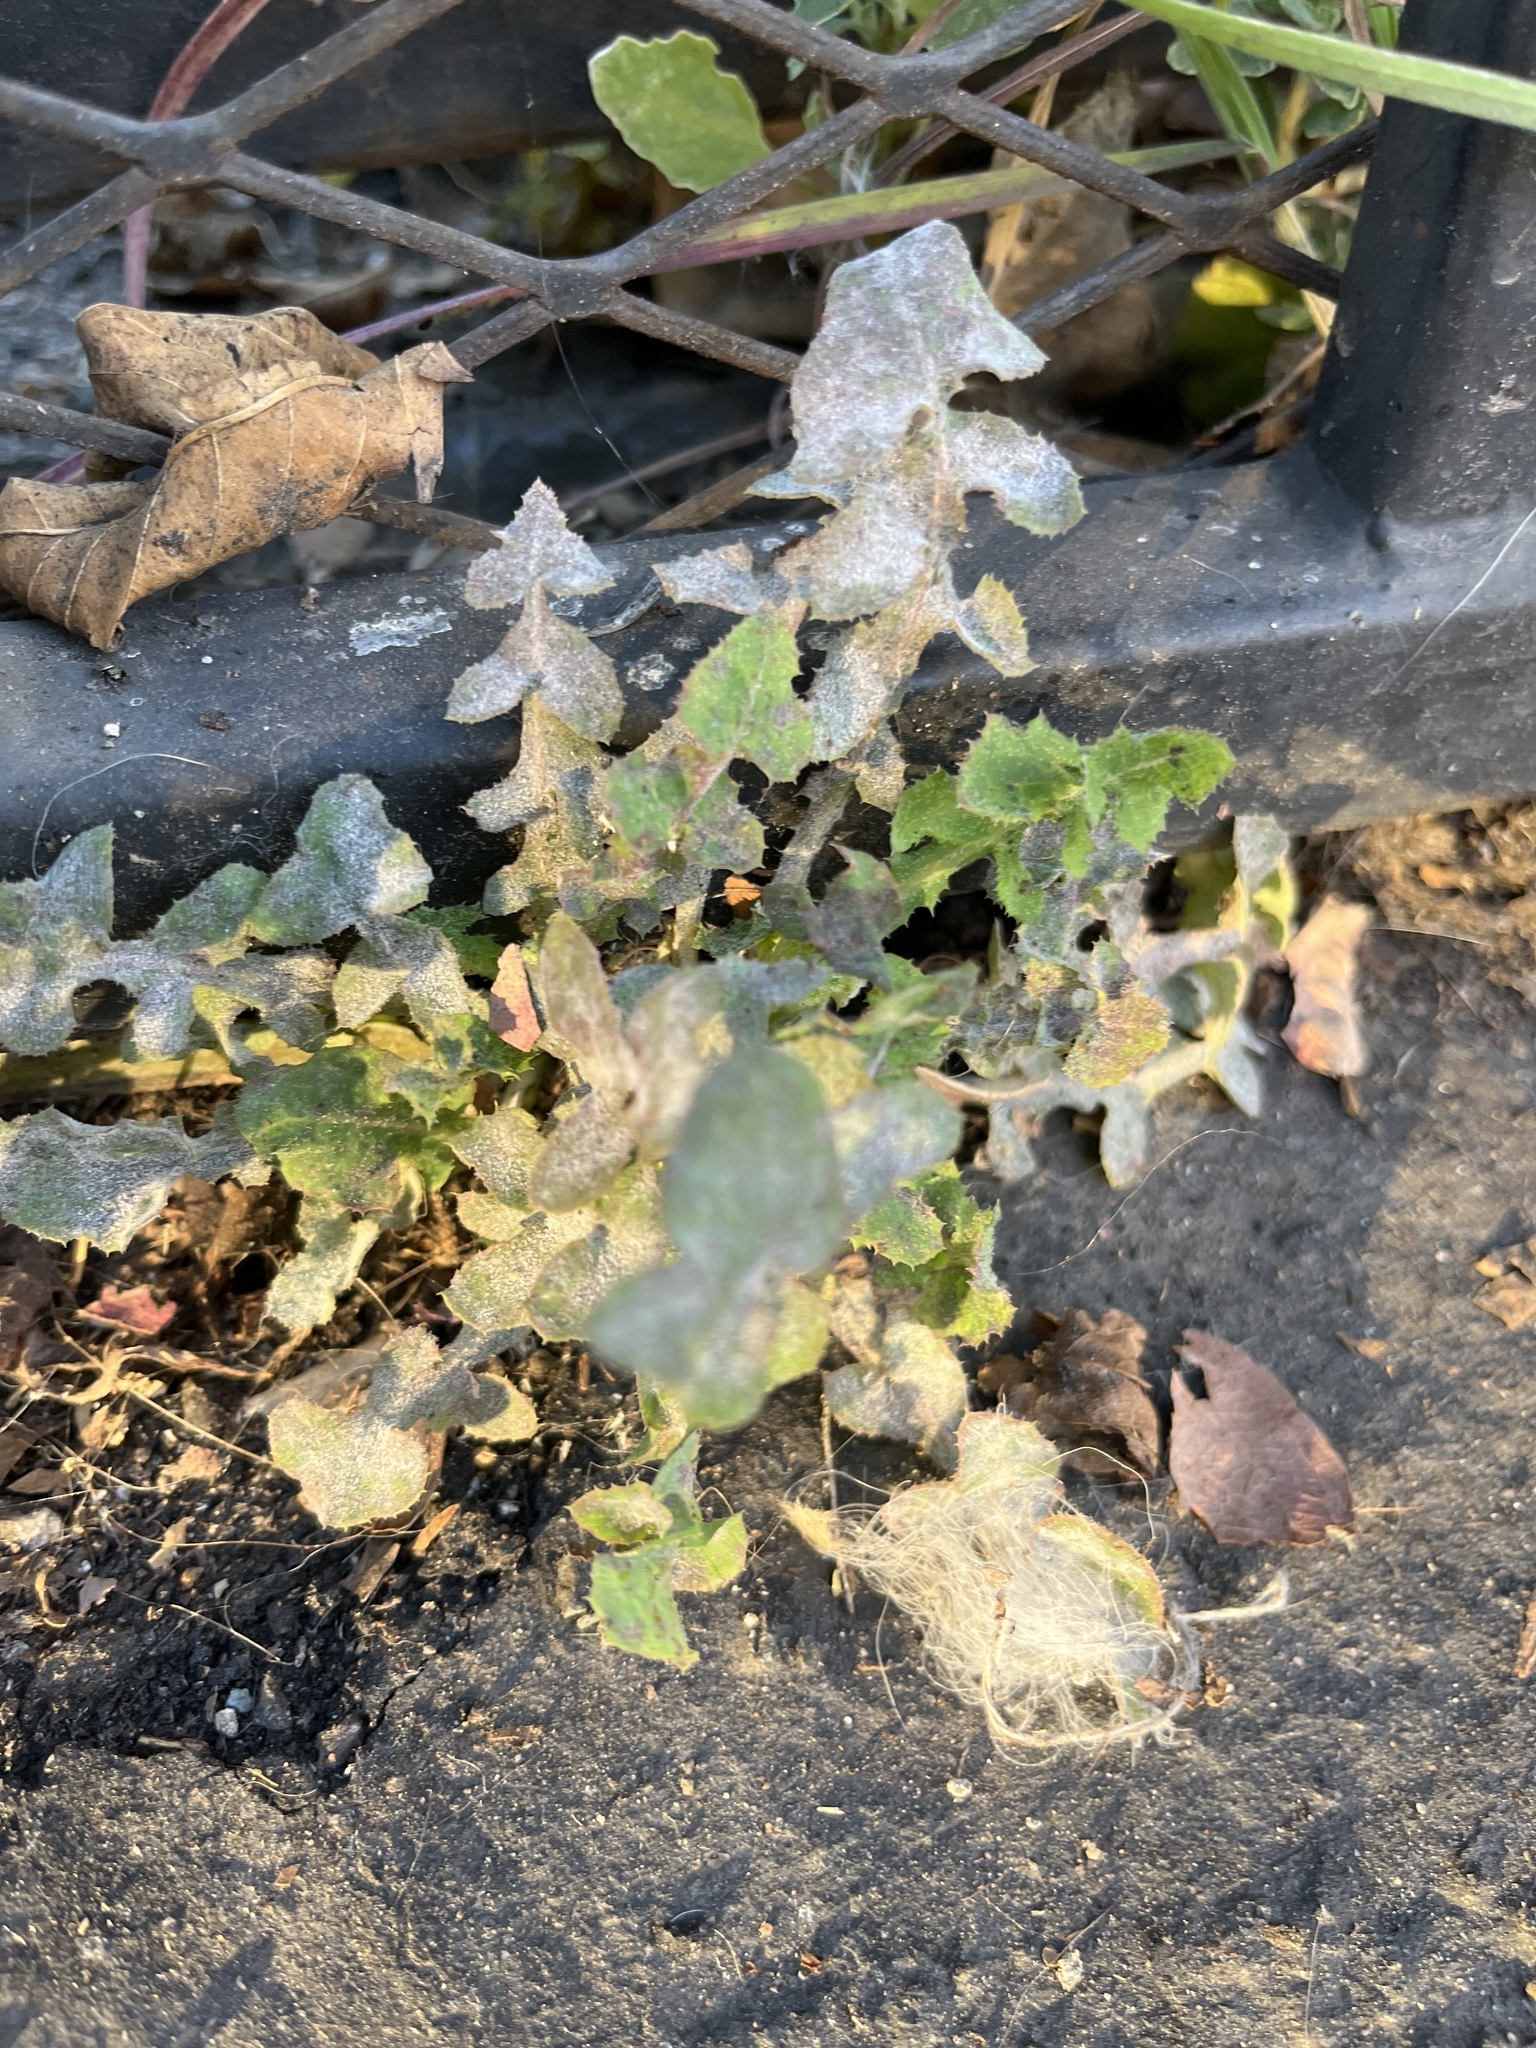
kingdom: Plantae
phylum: Tracheophyta
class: Magnoliopsida
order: Asterales
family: Asteraceae
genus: Sonchus
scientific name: Sonchus oleraceus
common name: Common sowthistle
